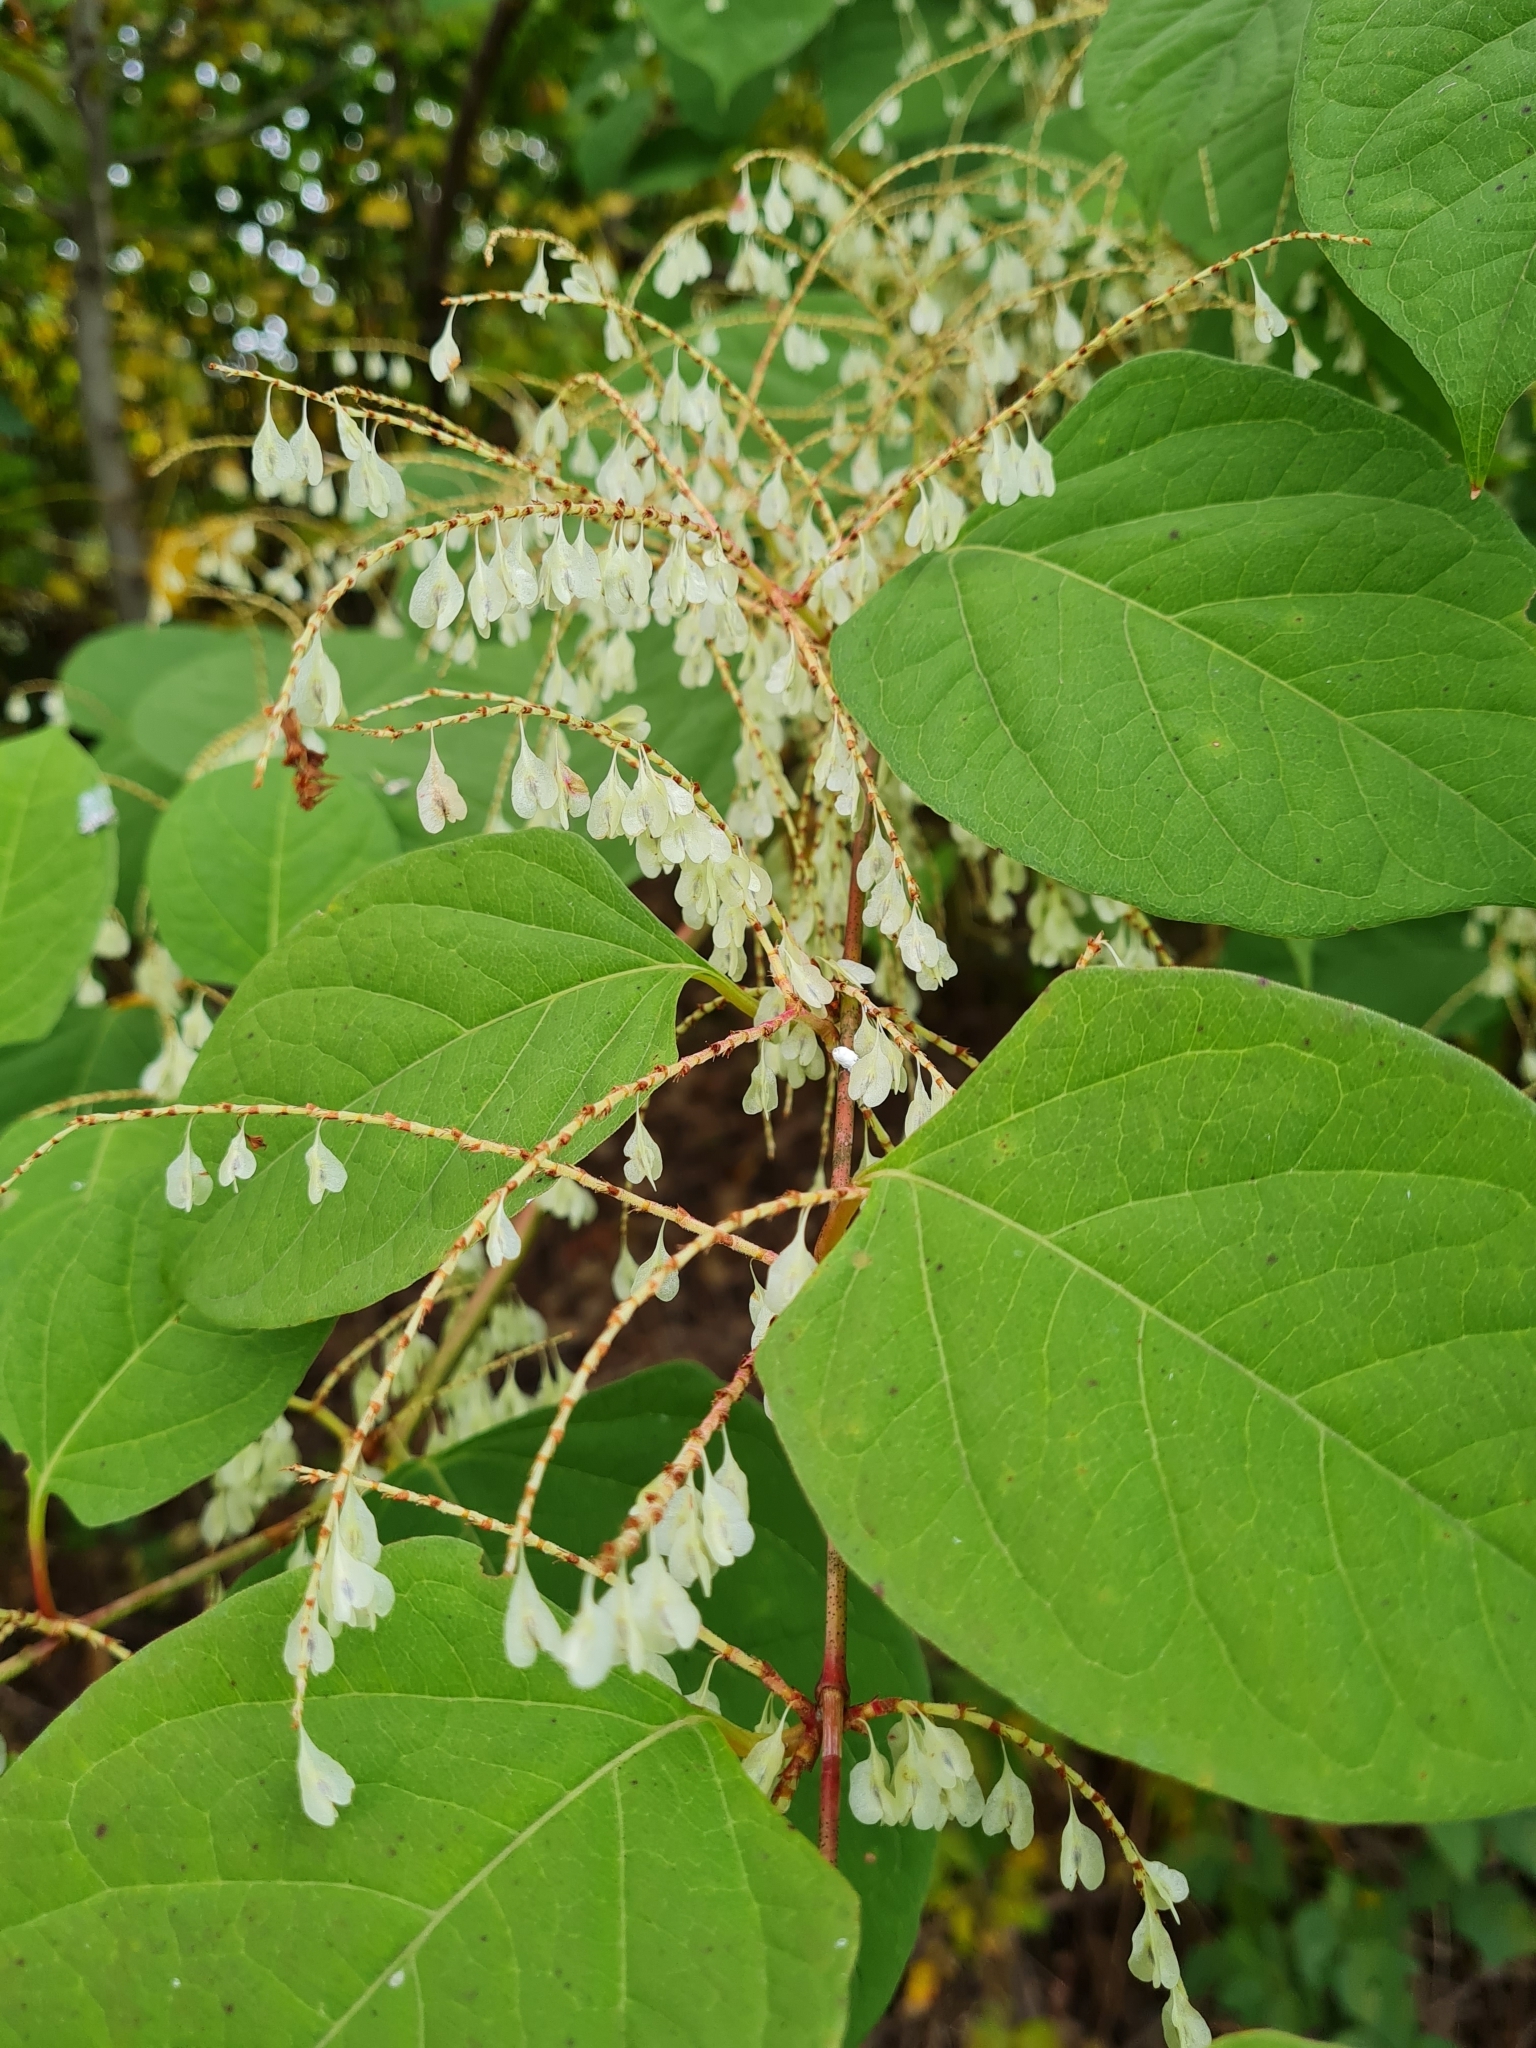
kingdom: Plantae
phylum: Tracheophyta
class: Magnoliopsida
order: Caryophyllales
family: Polygonaceae
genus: Reynoutria
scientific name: Reynoutria japonica
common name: Japanese knotweed
